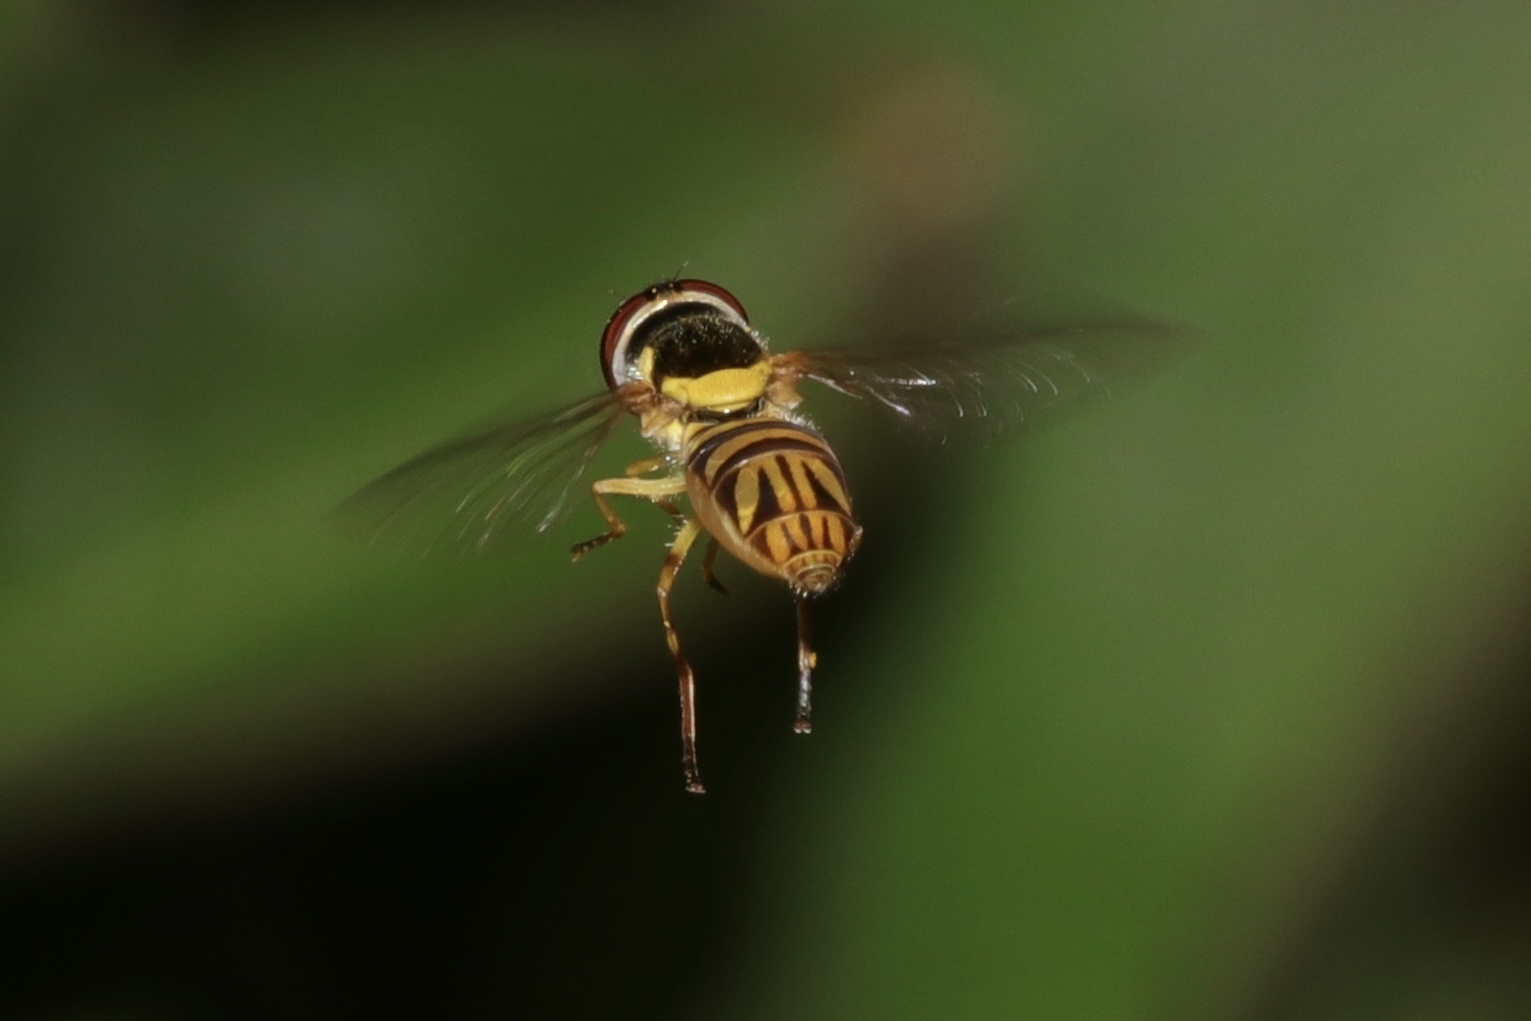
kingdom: Animalia
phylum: Arthropoda
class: Insecta
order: Diptera
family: Syrphidae
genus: Allograpta
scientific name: Allograpta obliqua
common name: Common oblique syrphid
